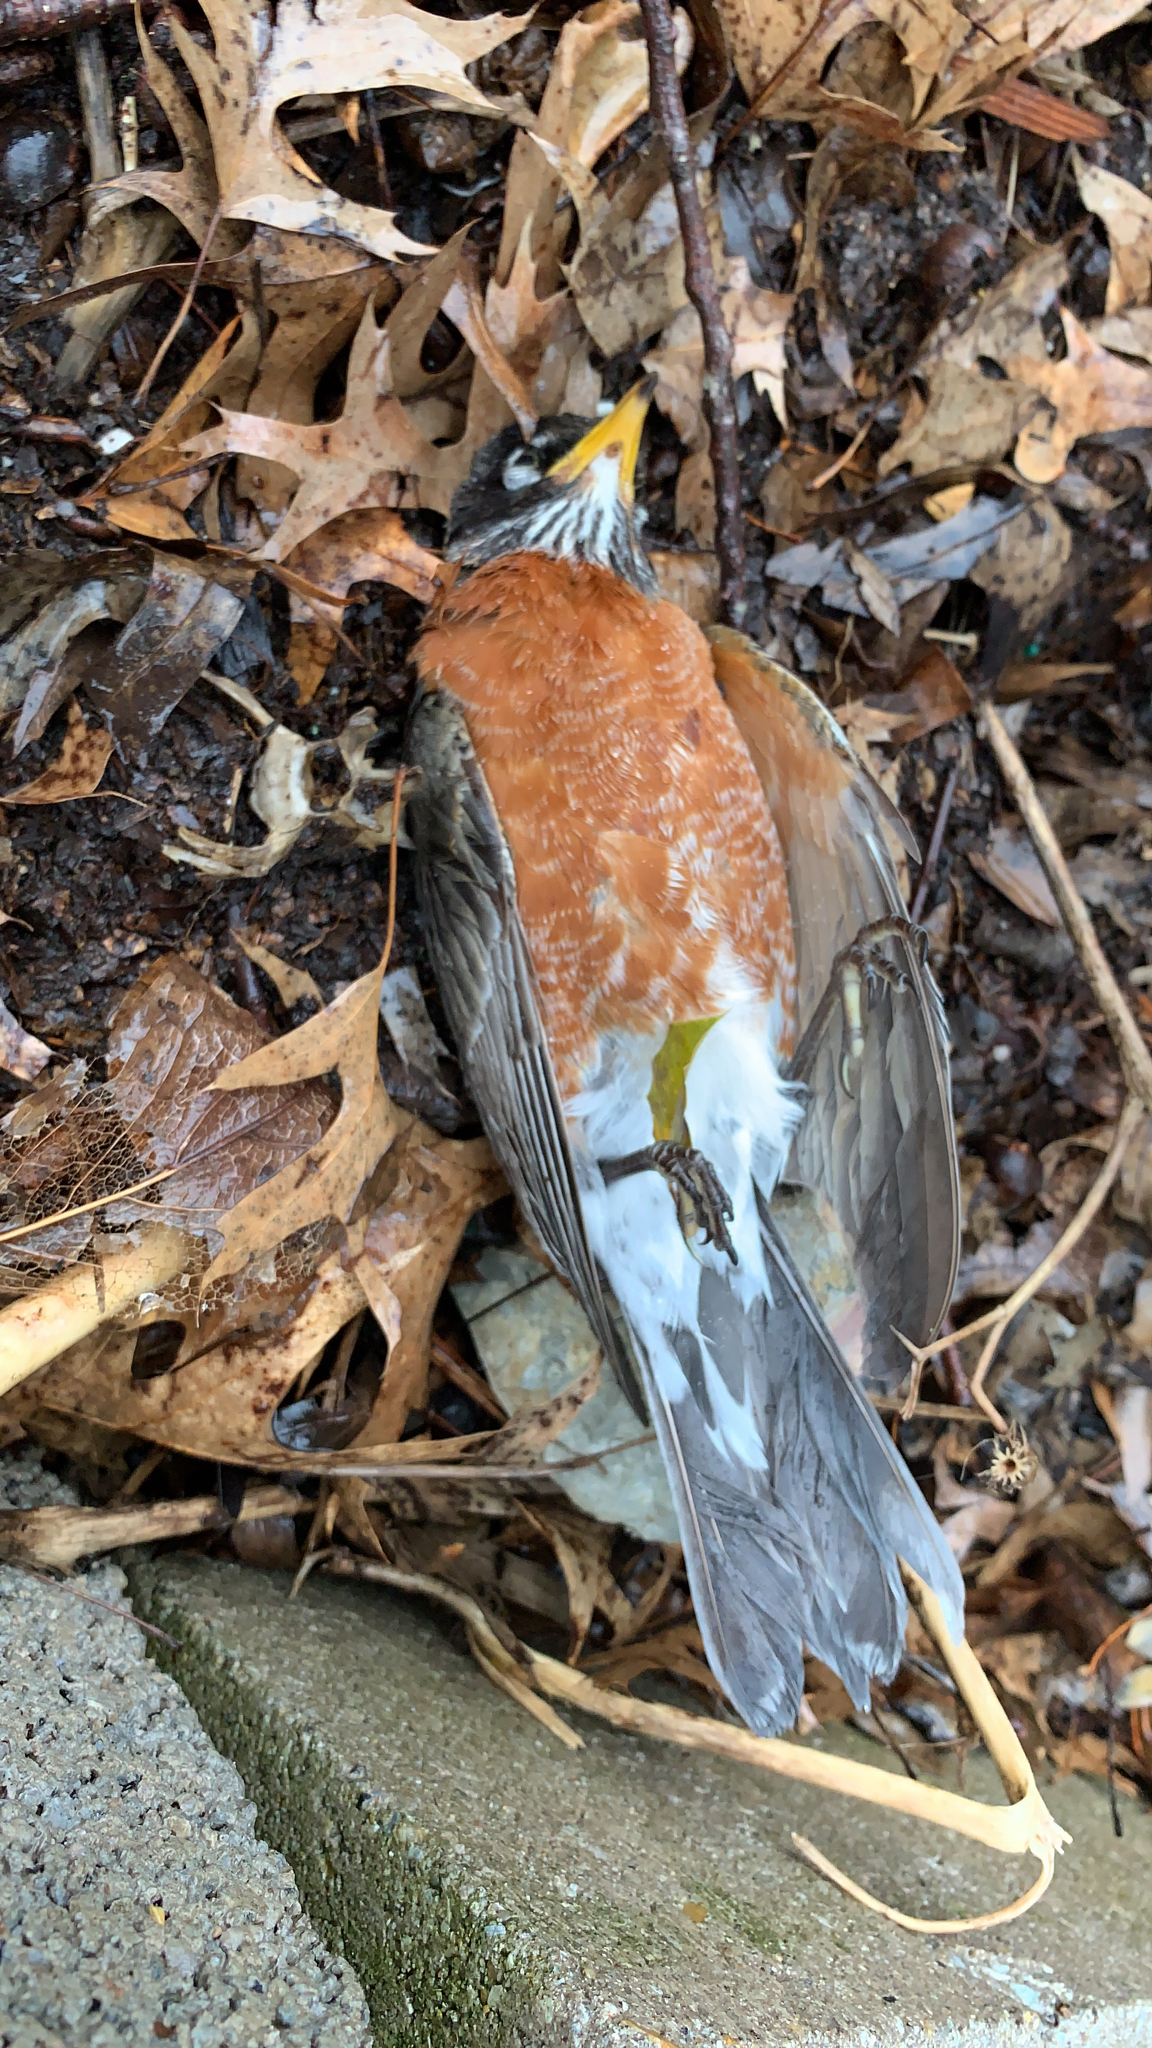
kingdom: Animalia
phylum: Chordata
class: Aves
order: Passeriformes
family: Turdidae
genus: Turdus
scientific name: Turdus migratorius
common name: American robin
